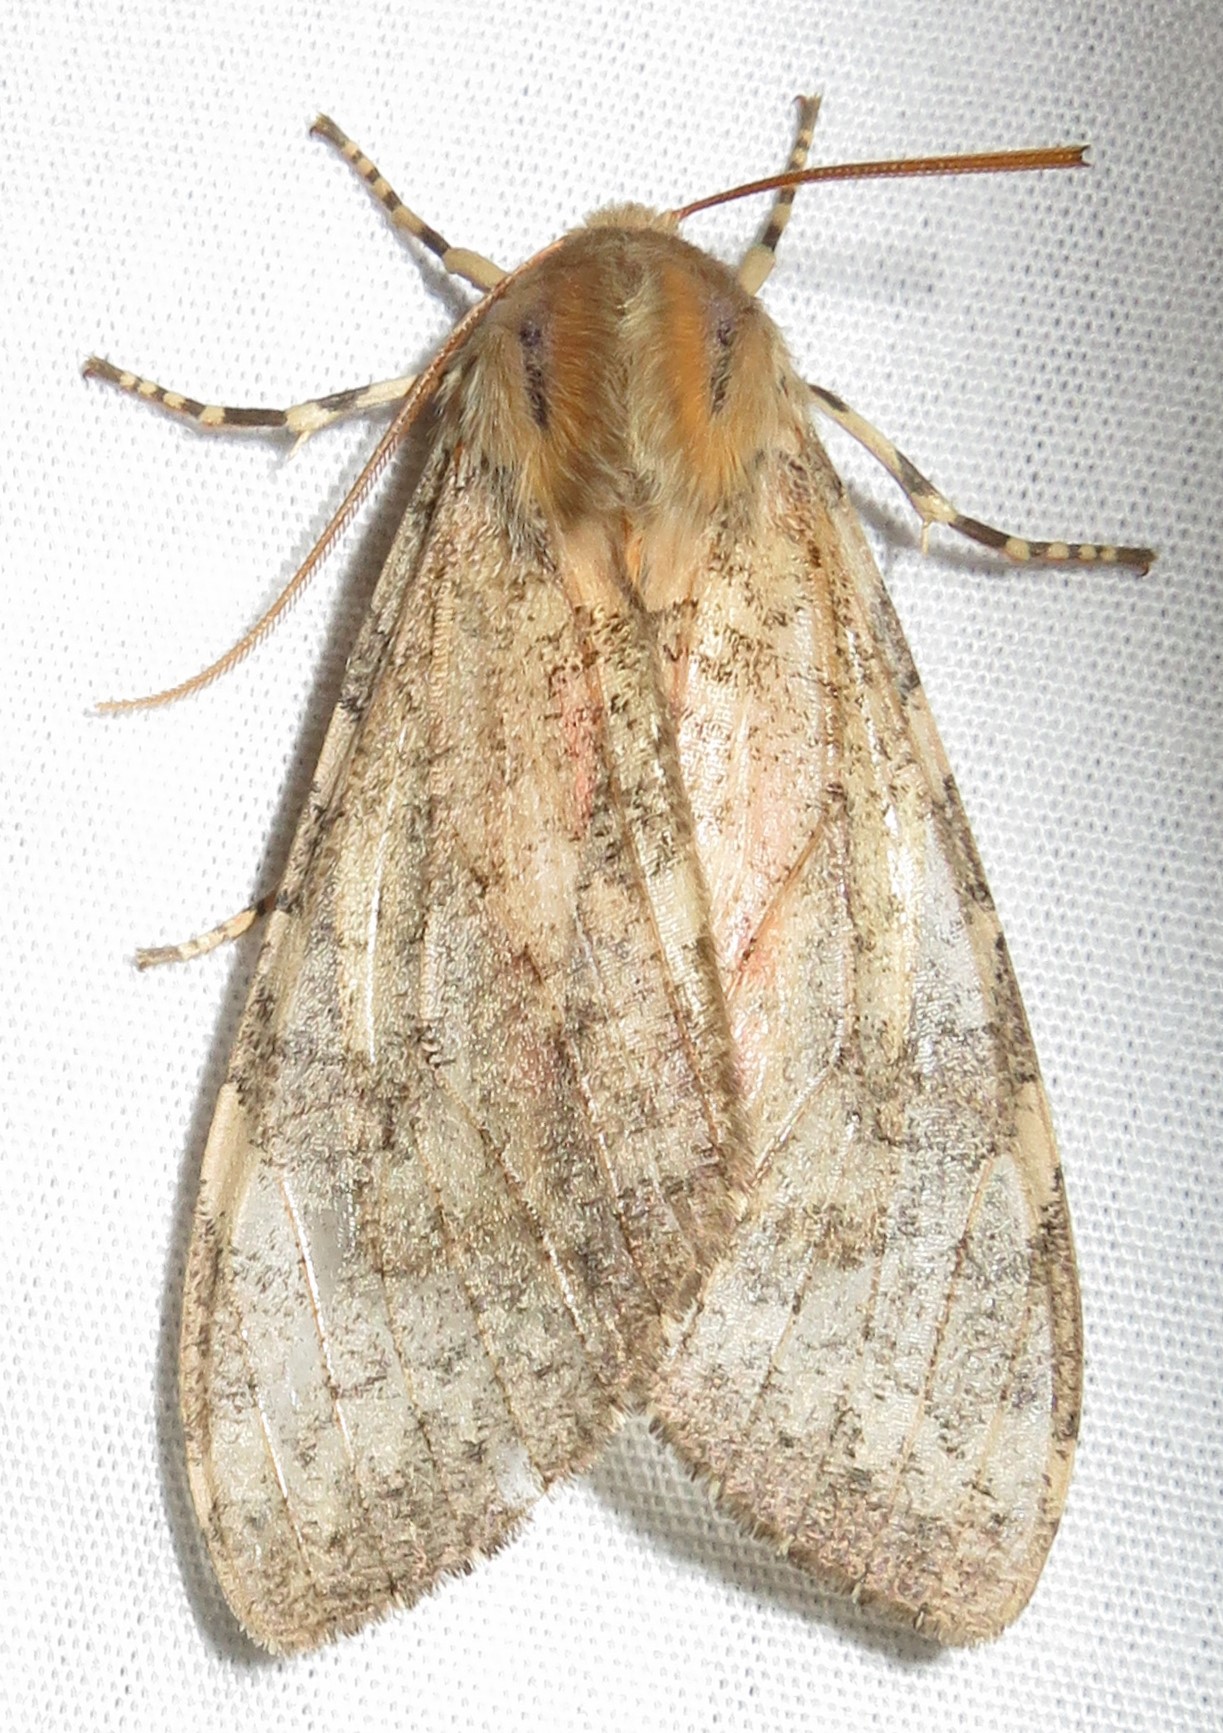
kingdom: Animalia
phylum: Arthropoda
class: Insecta
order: Lepidoptera
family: Erebidae
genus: Hemihyalea
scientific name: Hemihyalea labecula
